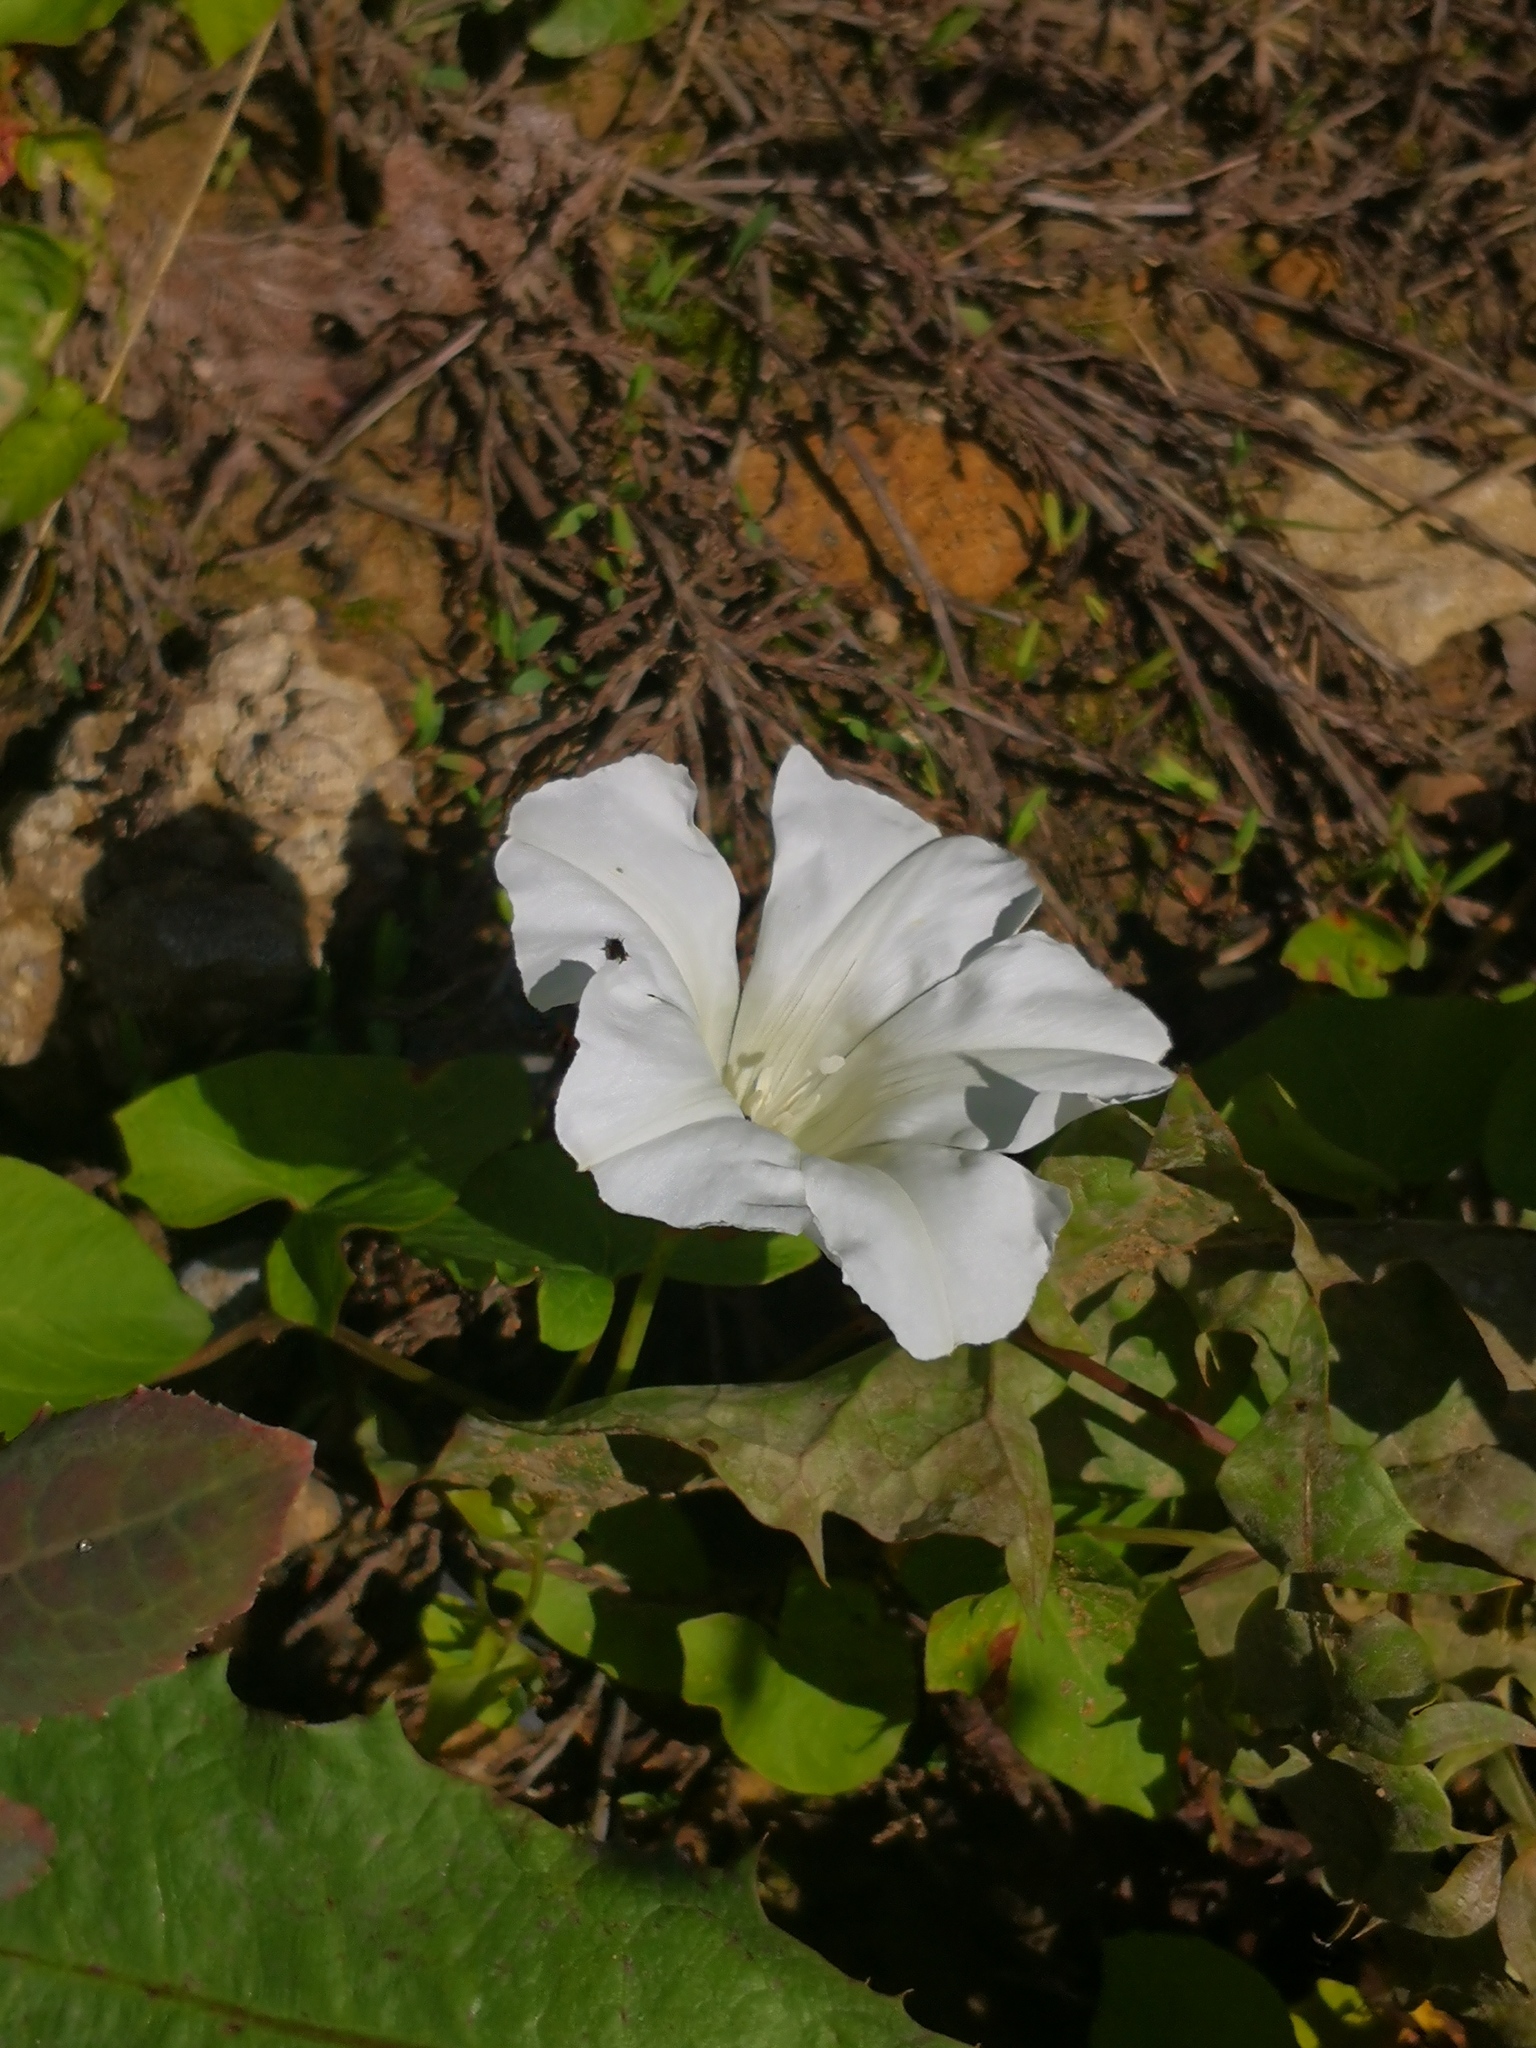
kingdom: Plantae
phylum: Tracheophyta
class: Magnoliopsida
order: Solanales
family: Convolvulaceae
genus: Calystegia
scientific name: Calystegia sepium
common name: Hedge bindweed
